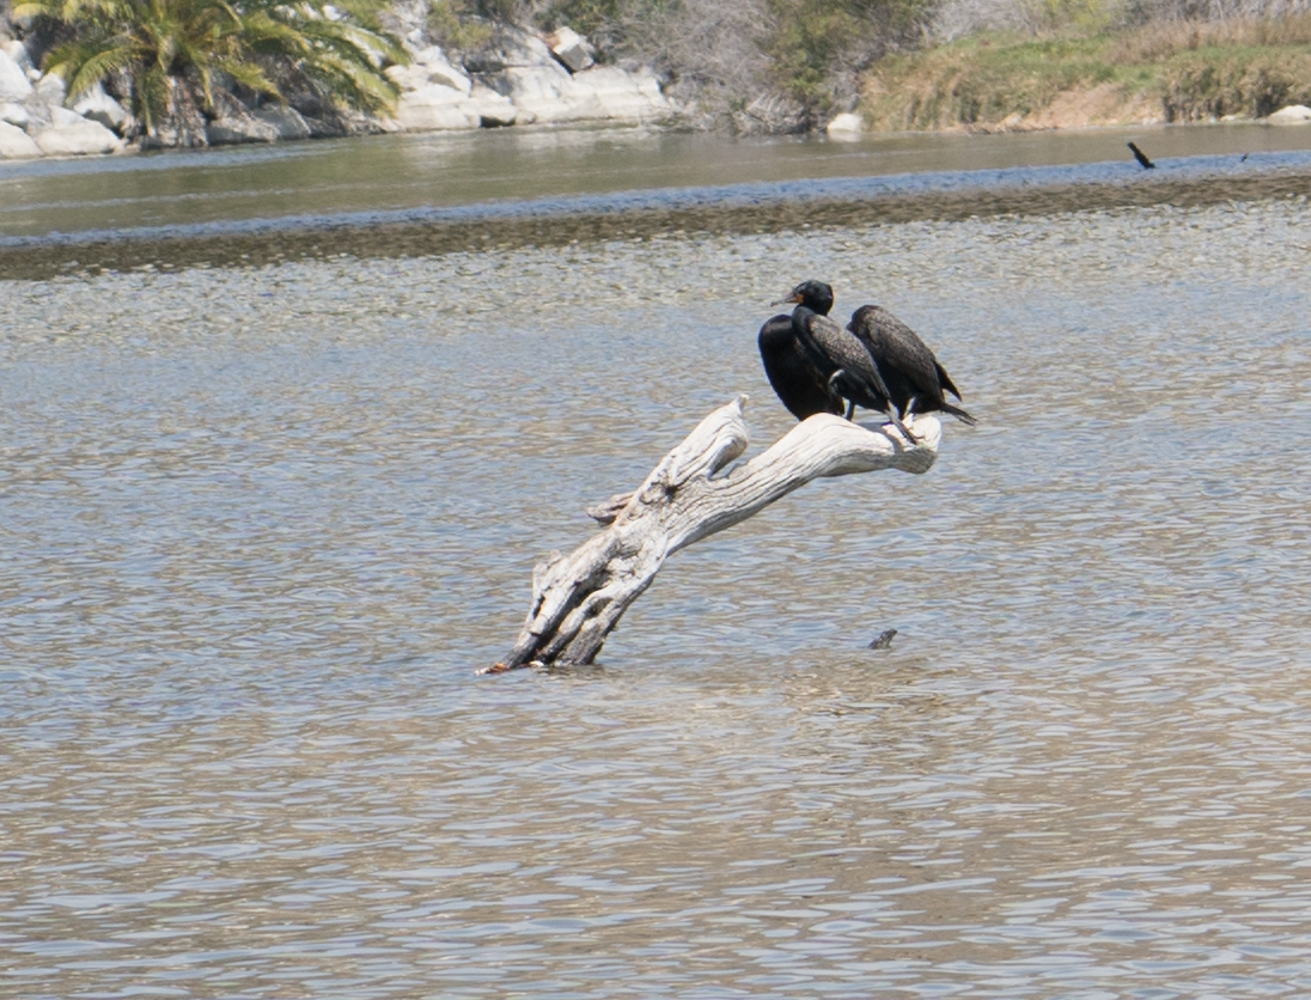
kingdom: Animalia
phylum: Chordata
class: Aves
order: Suliformes
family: Phalacrocoracidae
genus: Phalacrocorax
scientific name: Phalacrocorax auritus
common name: Double-crested cormorant
